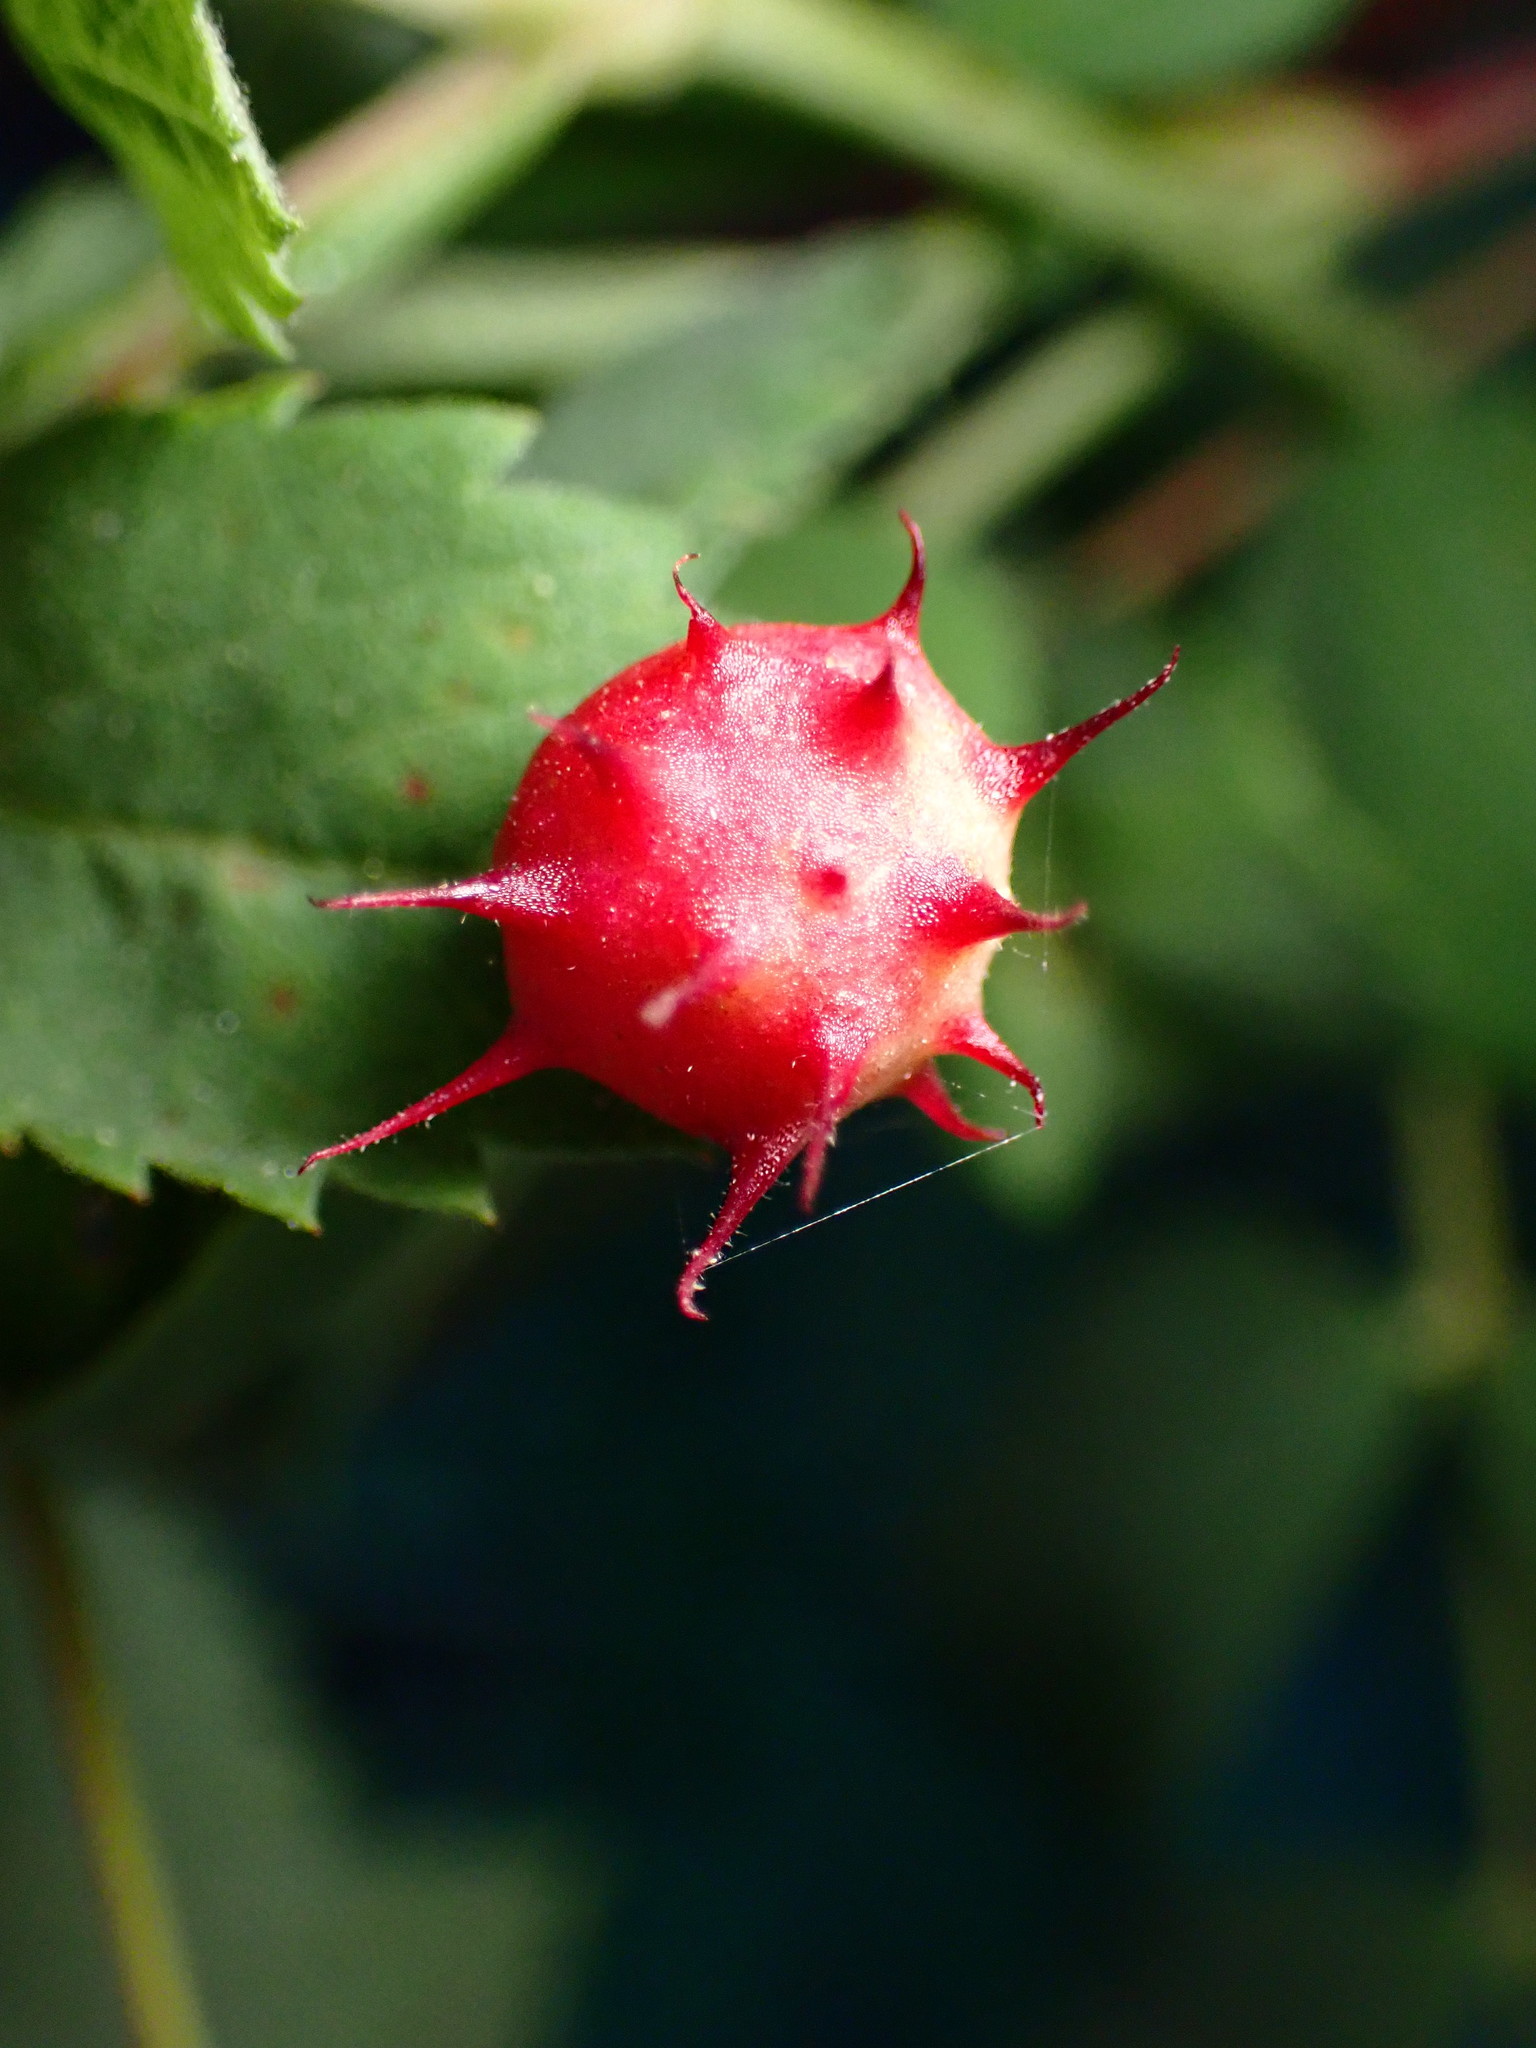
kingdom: Animalia
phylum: Arthropoda
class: Insecta
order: Hymenoptera
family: Cynipidae
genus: Diplolepis
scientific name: Diplolepis polita
